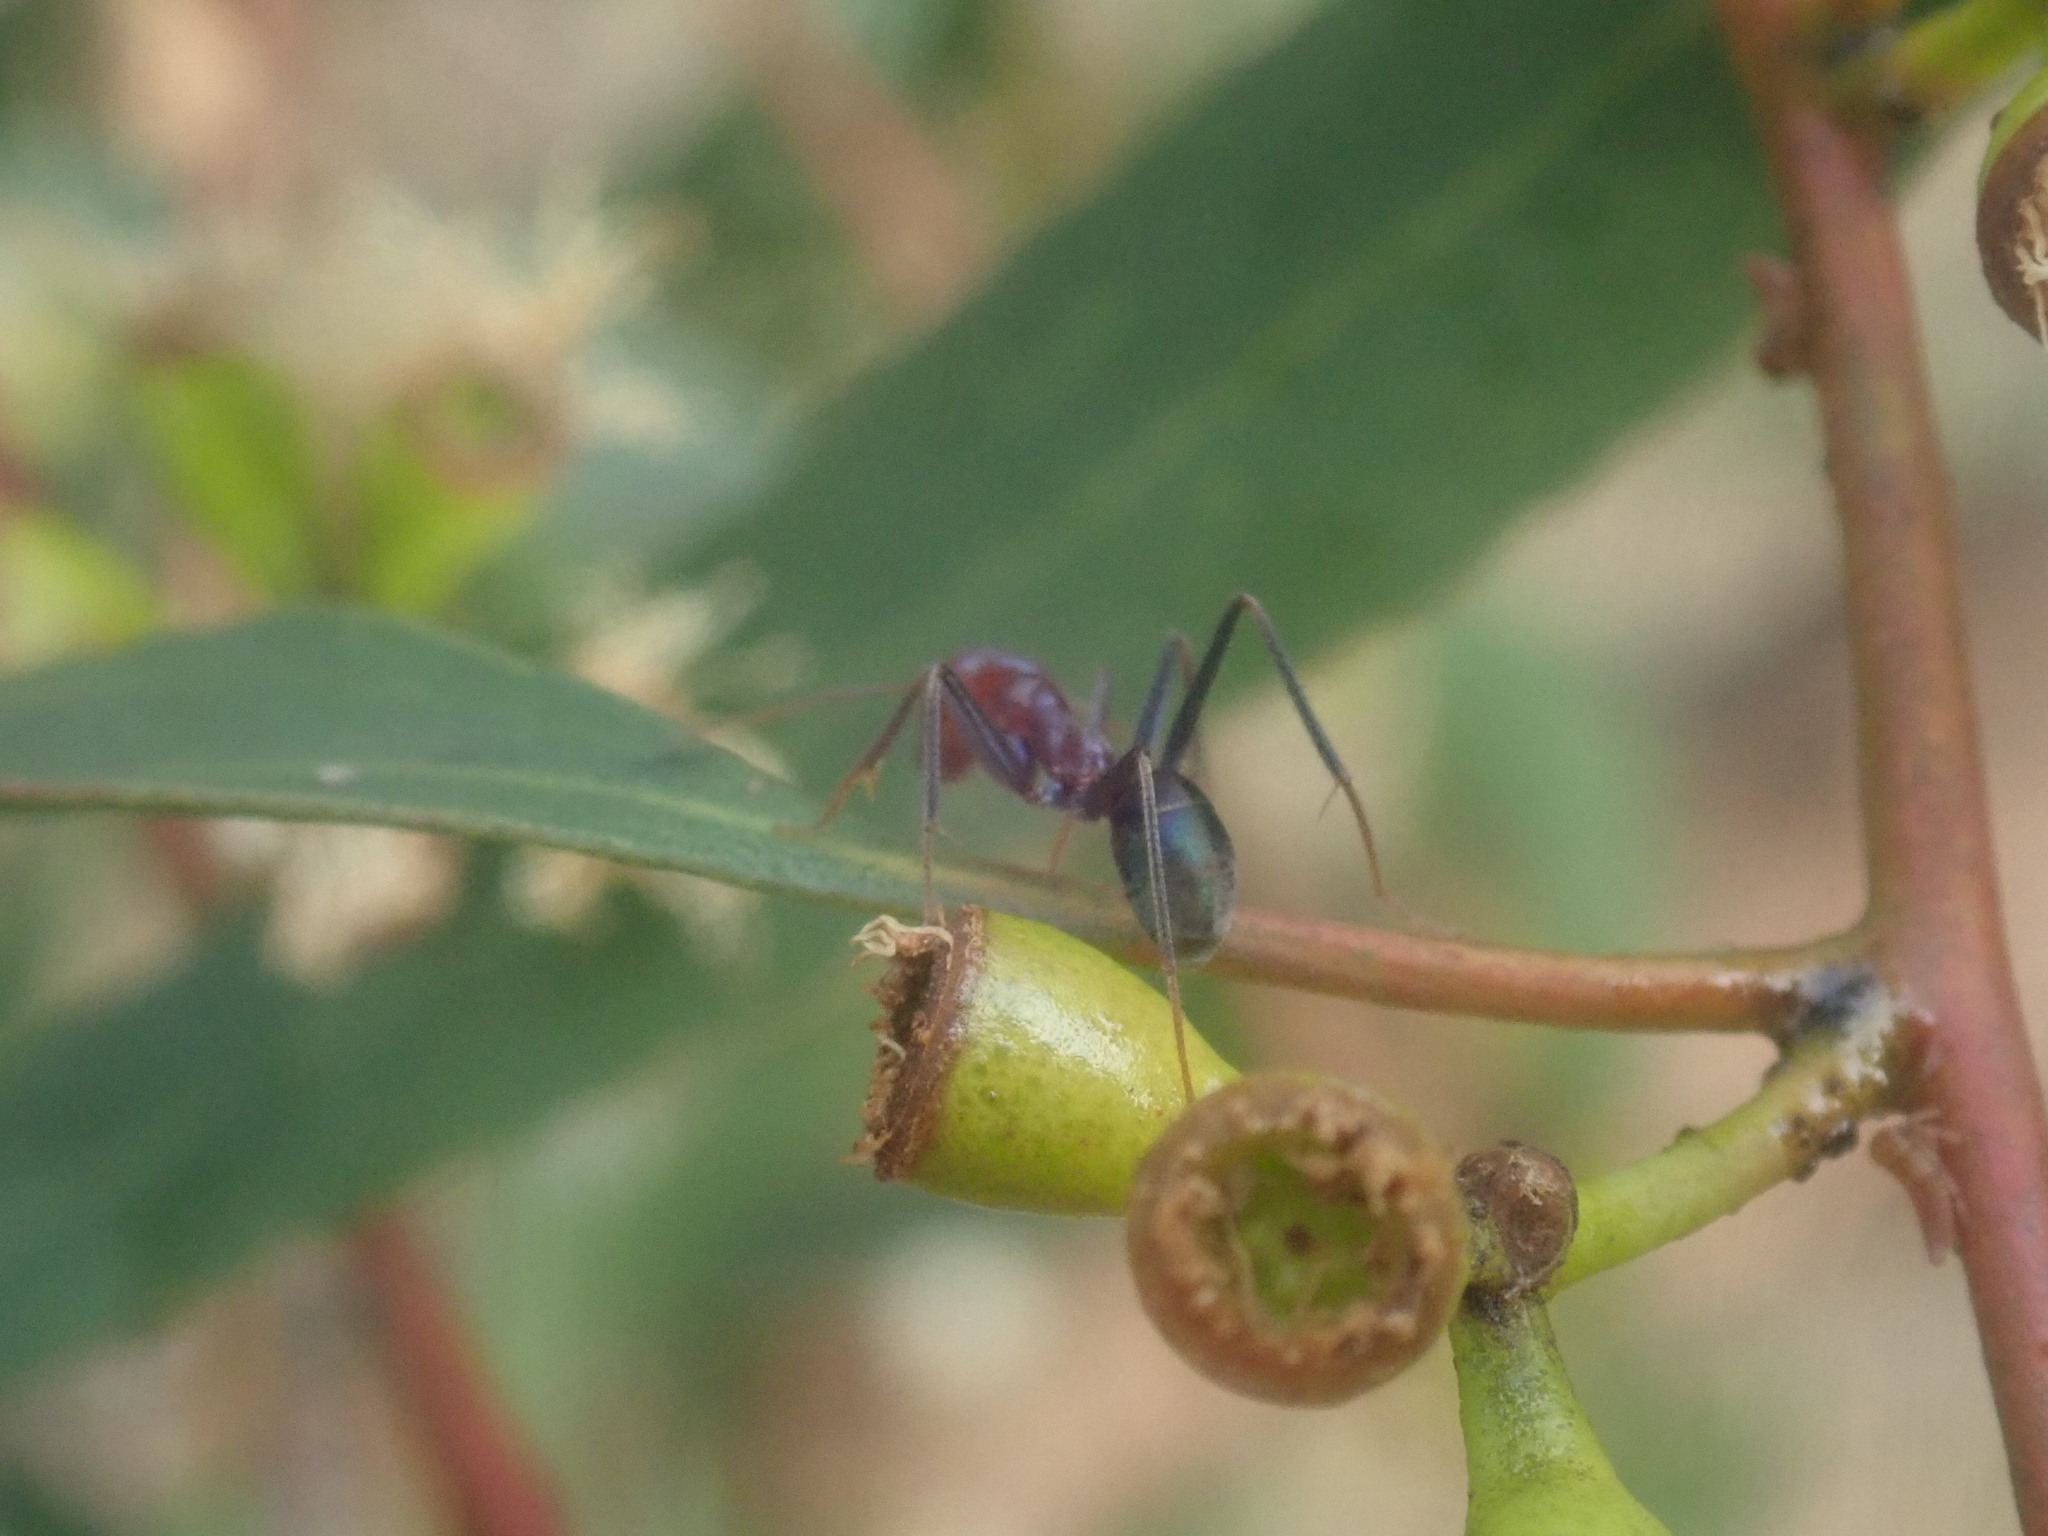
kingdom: Animalia
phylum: Arthropoda
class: Insecta
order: Hymenoptera
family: Formicidae
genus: Iridomyrmex
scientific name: Iridomyrmex purpureus
